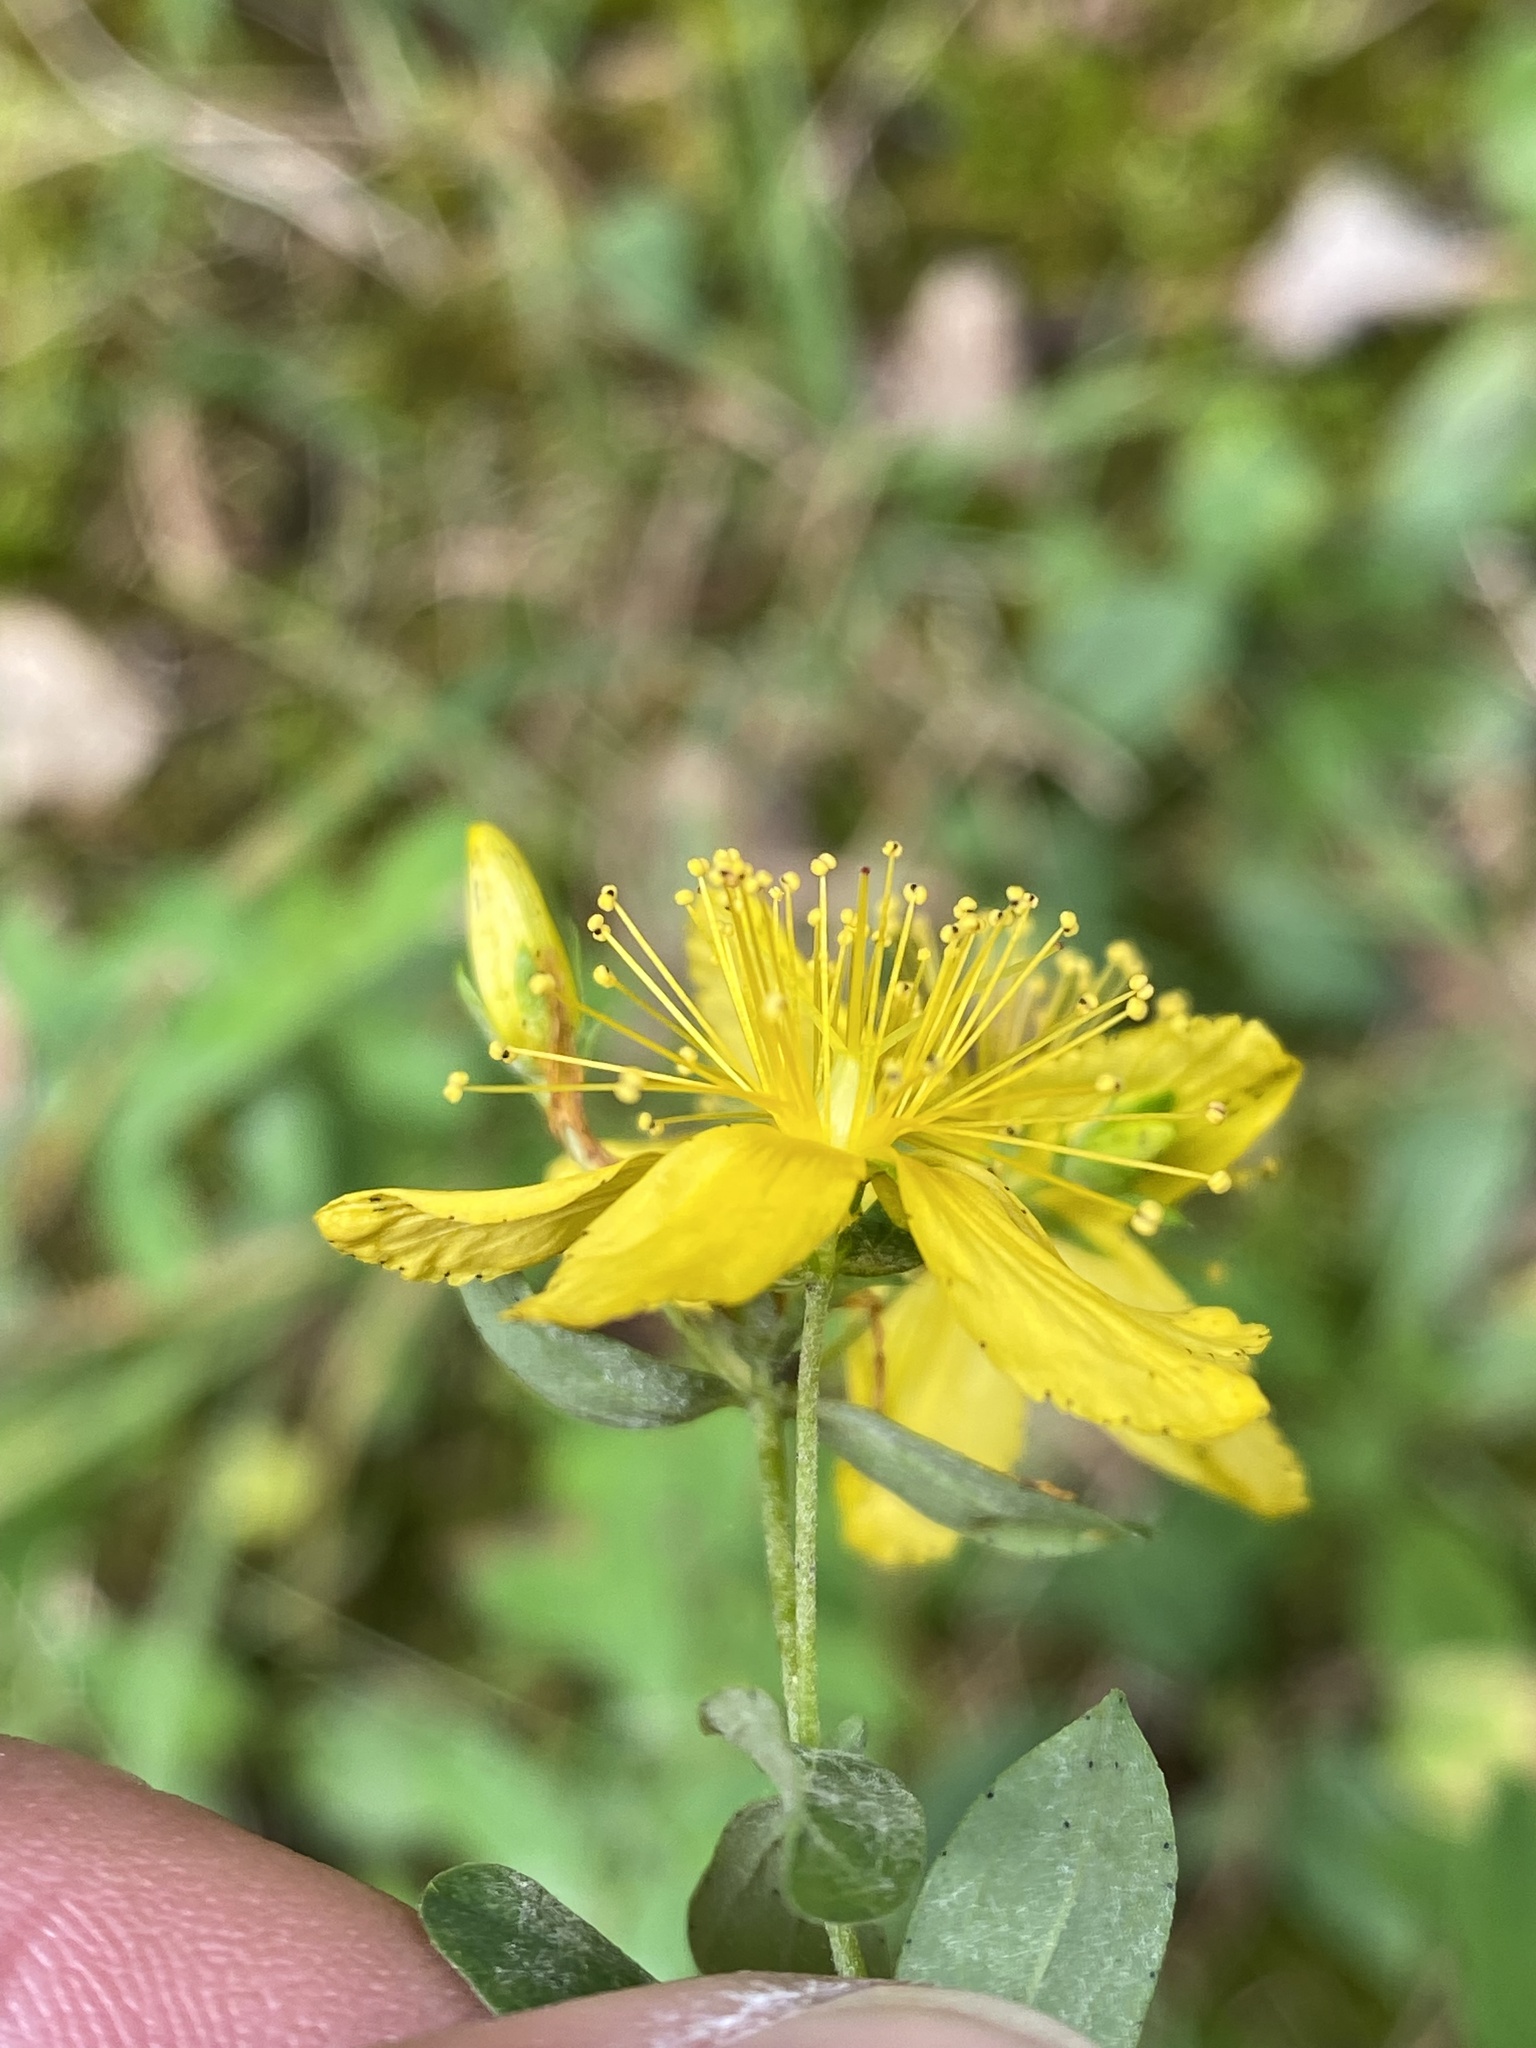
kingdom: Plantae
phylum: Tracheophyta
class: Magnoliopsida
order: Malpighiales
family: Hypericaceae
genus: Hypericum
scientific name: Hypericum perforatum
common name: Common st. johnswort
